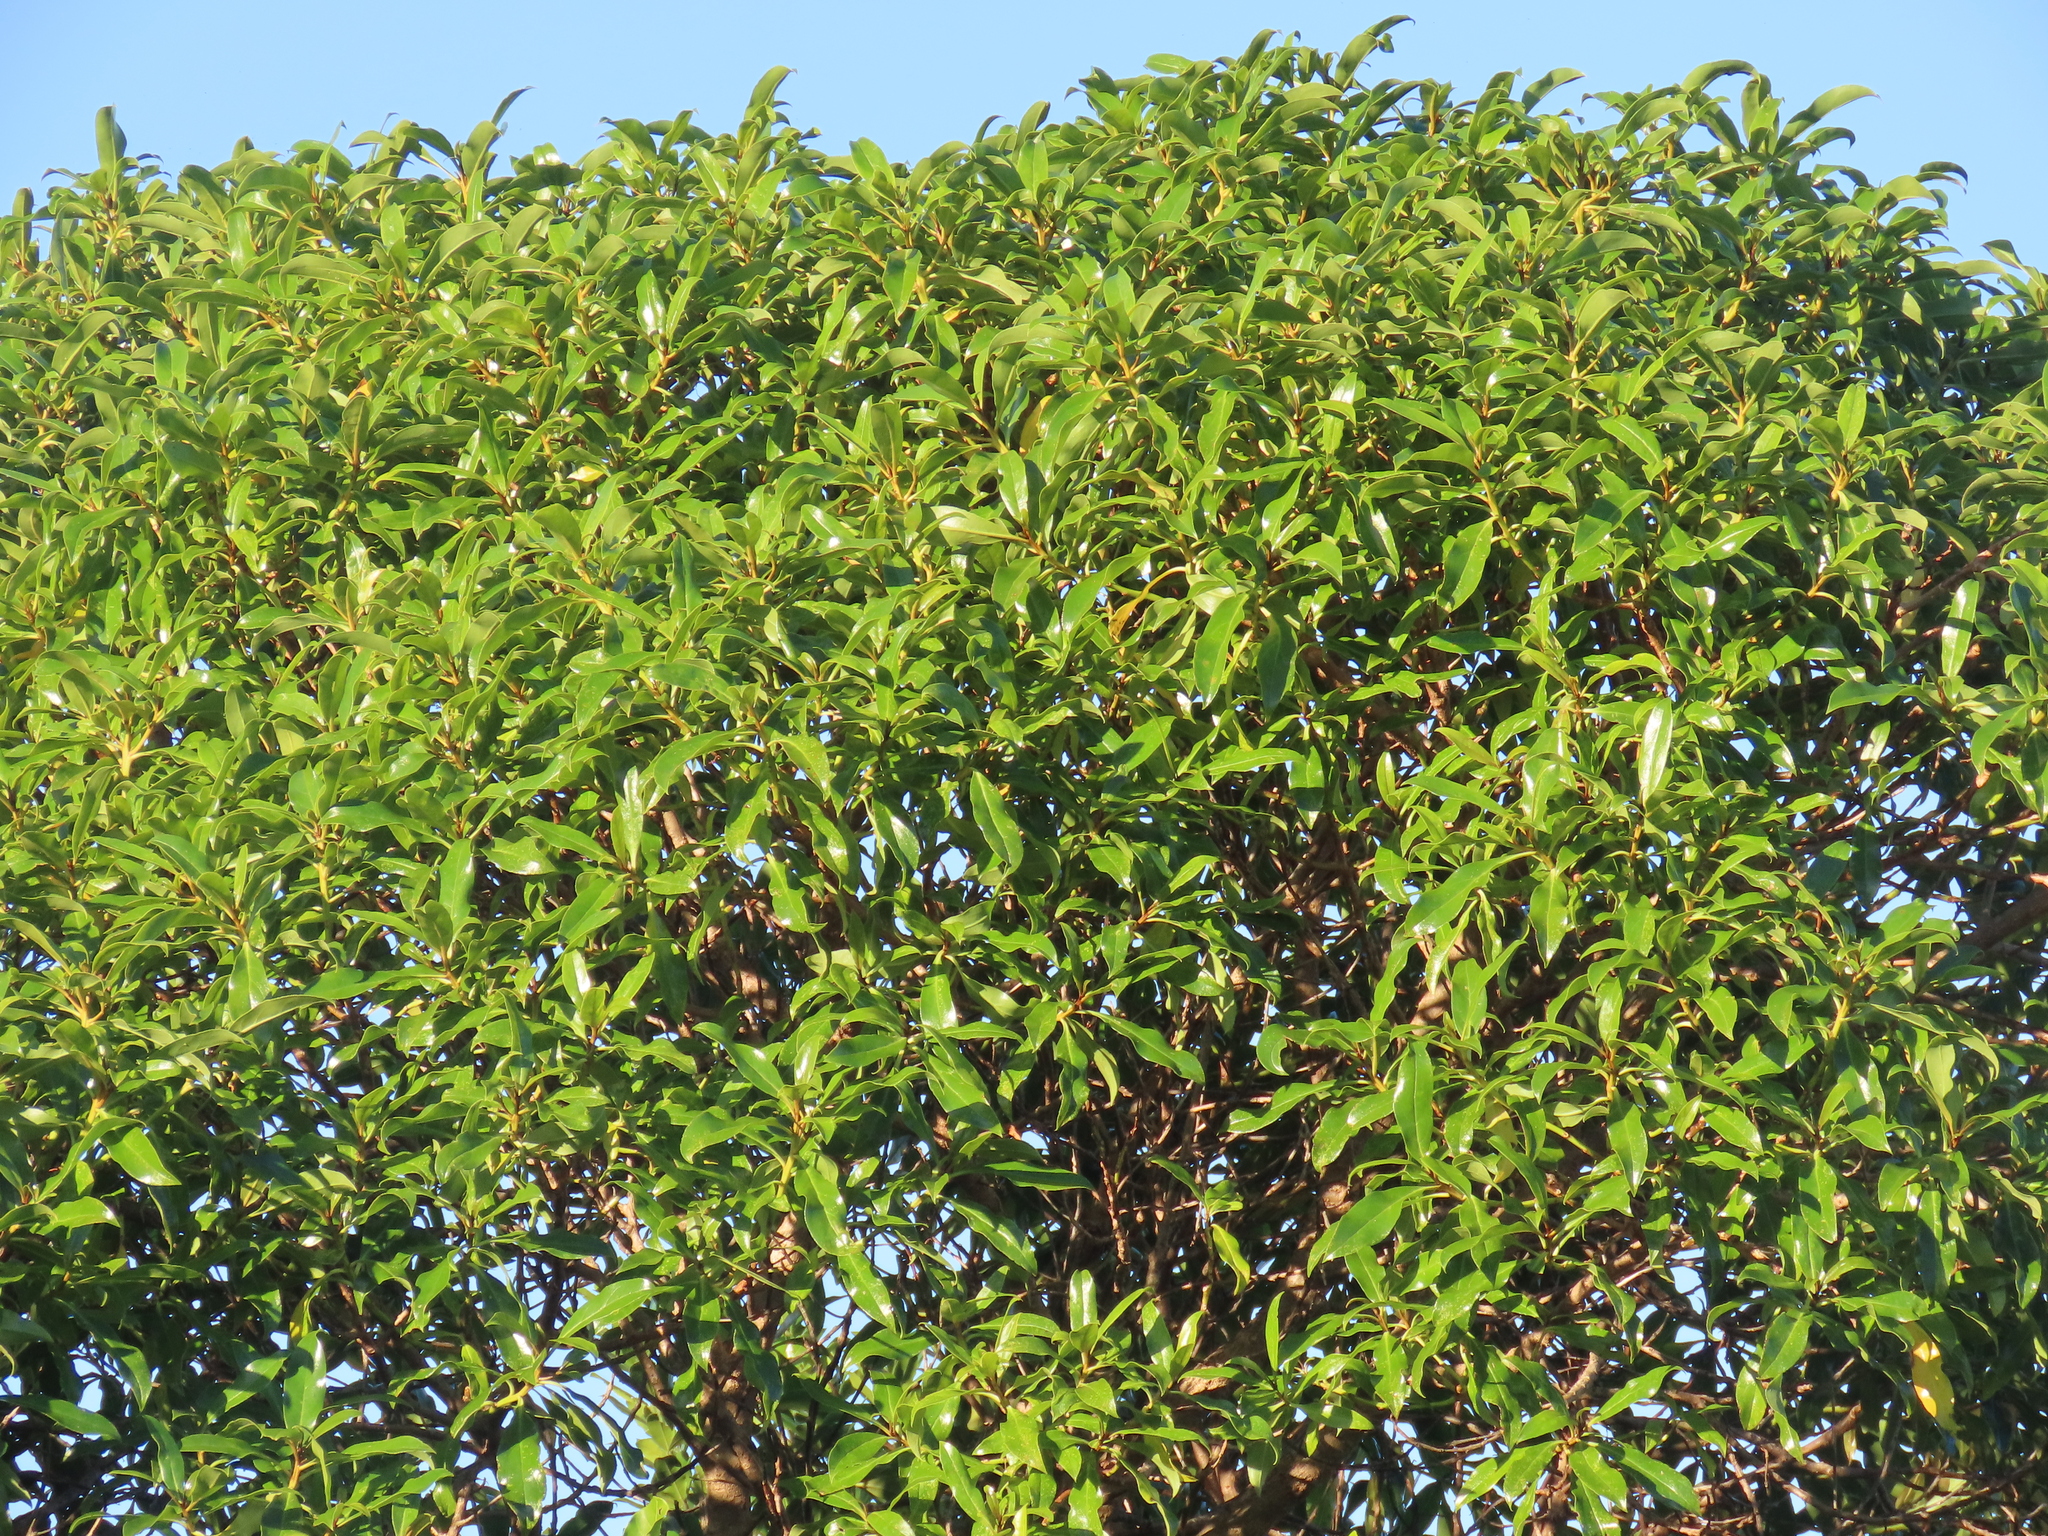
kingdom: Plantae
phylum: Tracheophyta
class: Magnoliopsida
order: Lamiales
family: Scrophulariaceae
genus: Myoporum
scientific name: Myoporum laetum
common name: Ngaio tree
